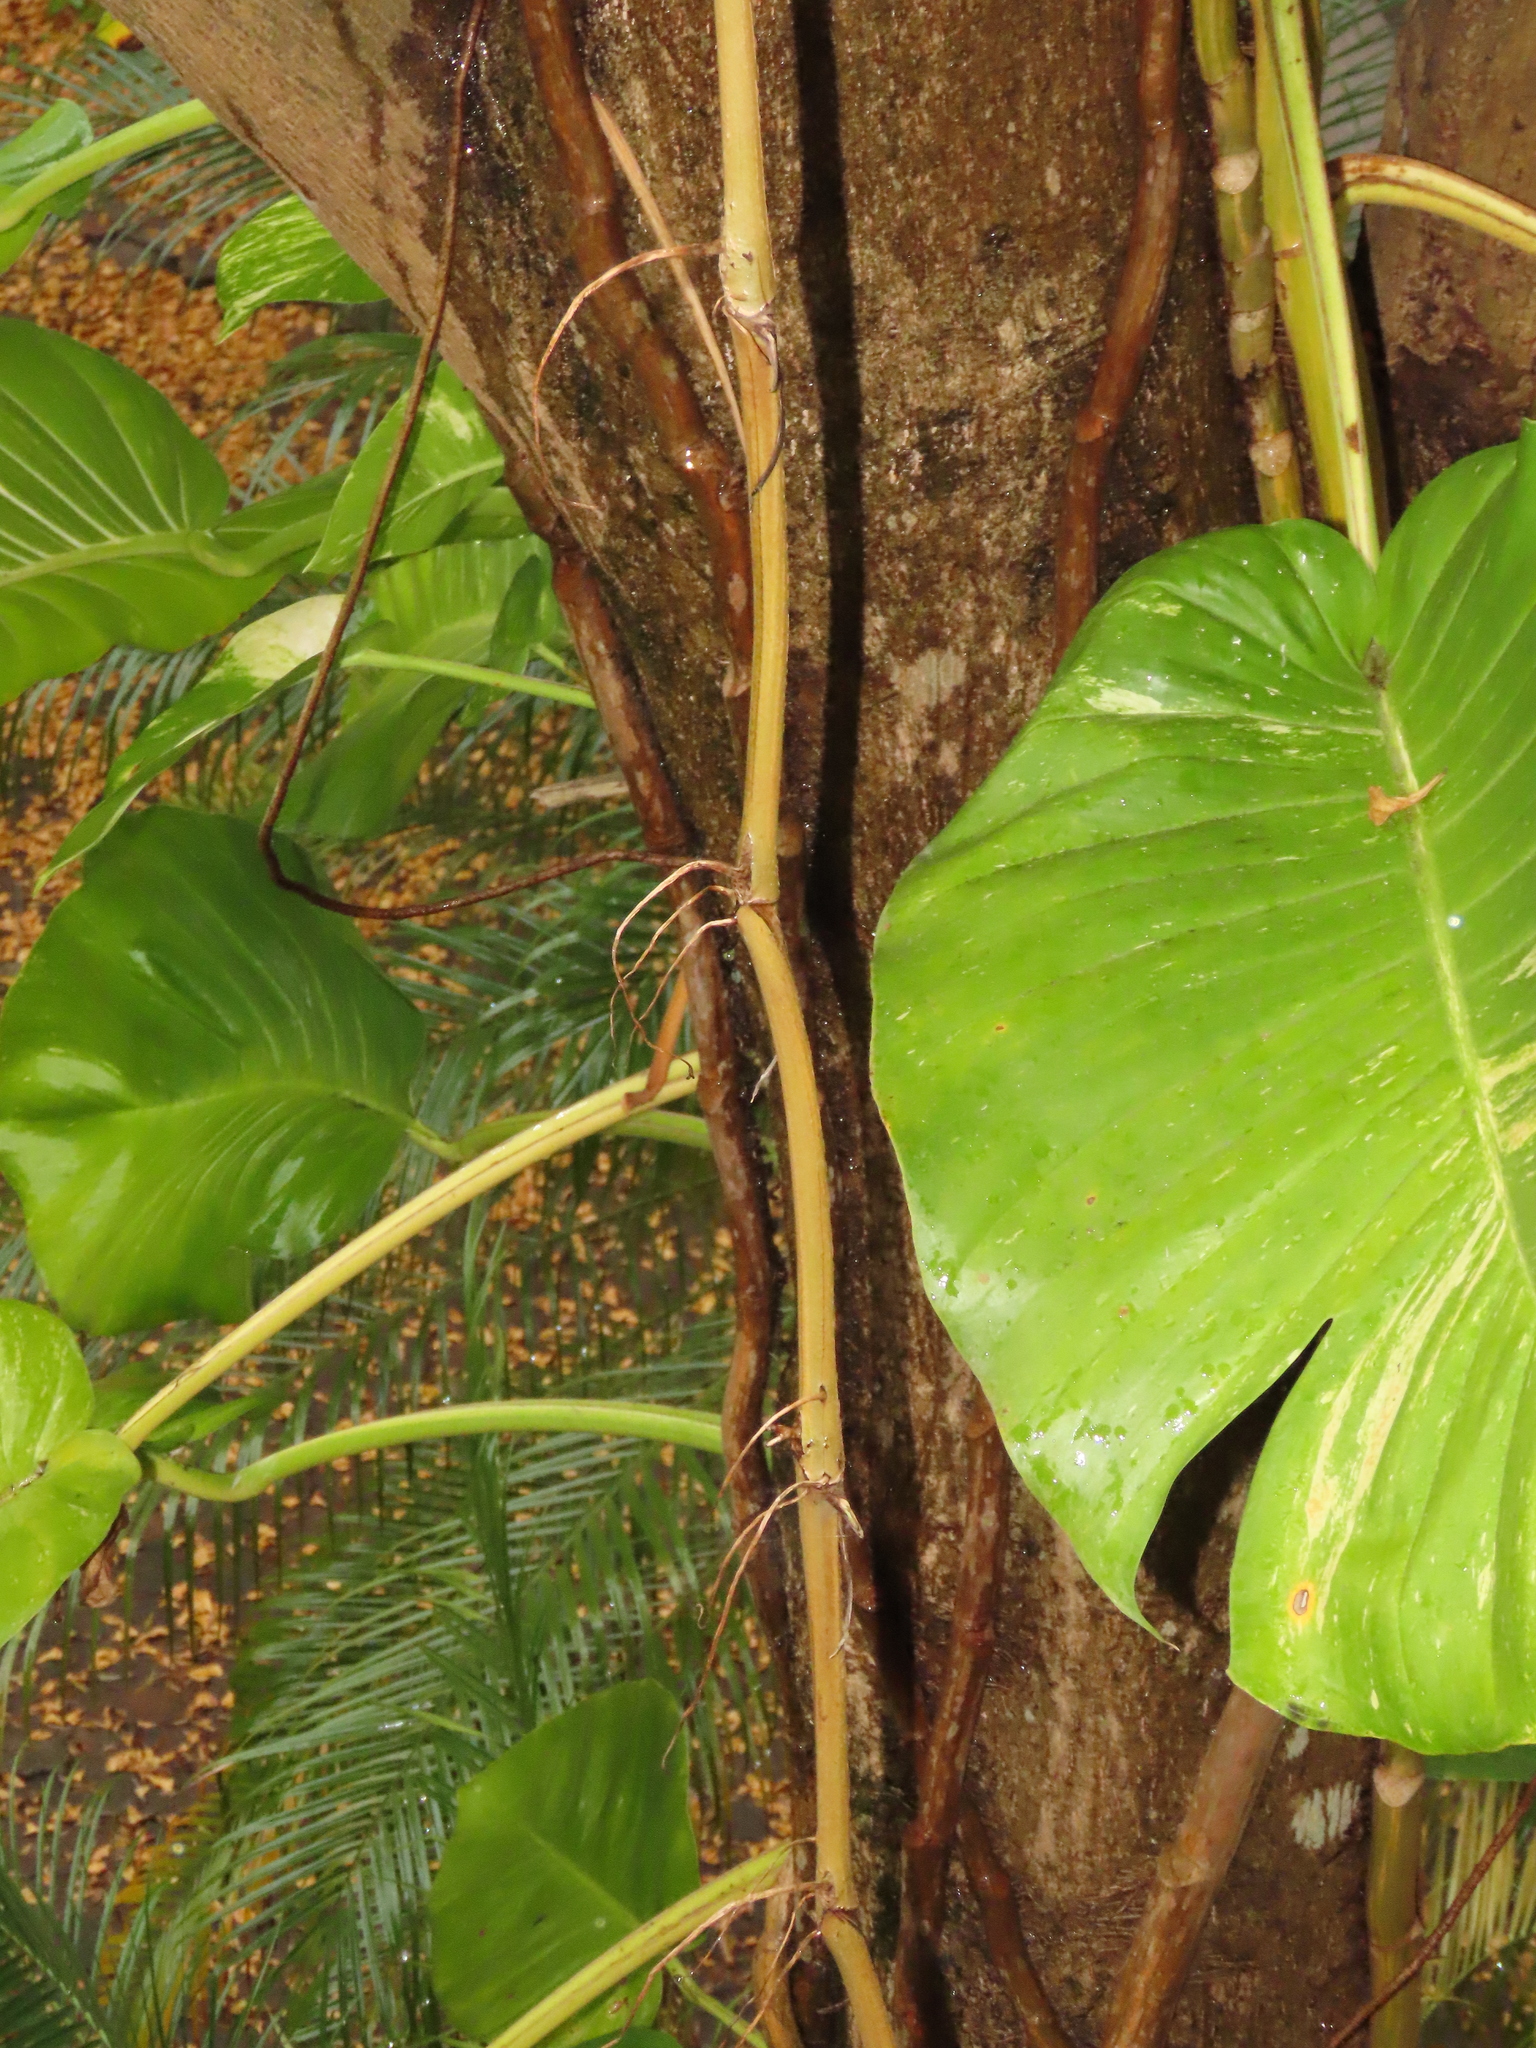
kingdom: Plantae
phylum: Tracheophyta
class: Liliopsida
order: Alismatales
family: Araceae
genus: Epipremnum
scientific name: Epipremnum aureum
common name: Golden hunter's-robe
